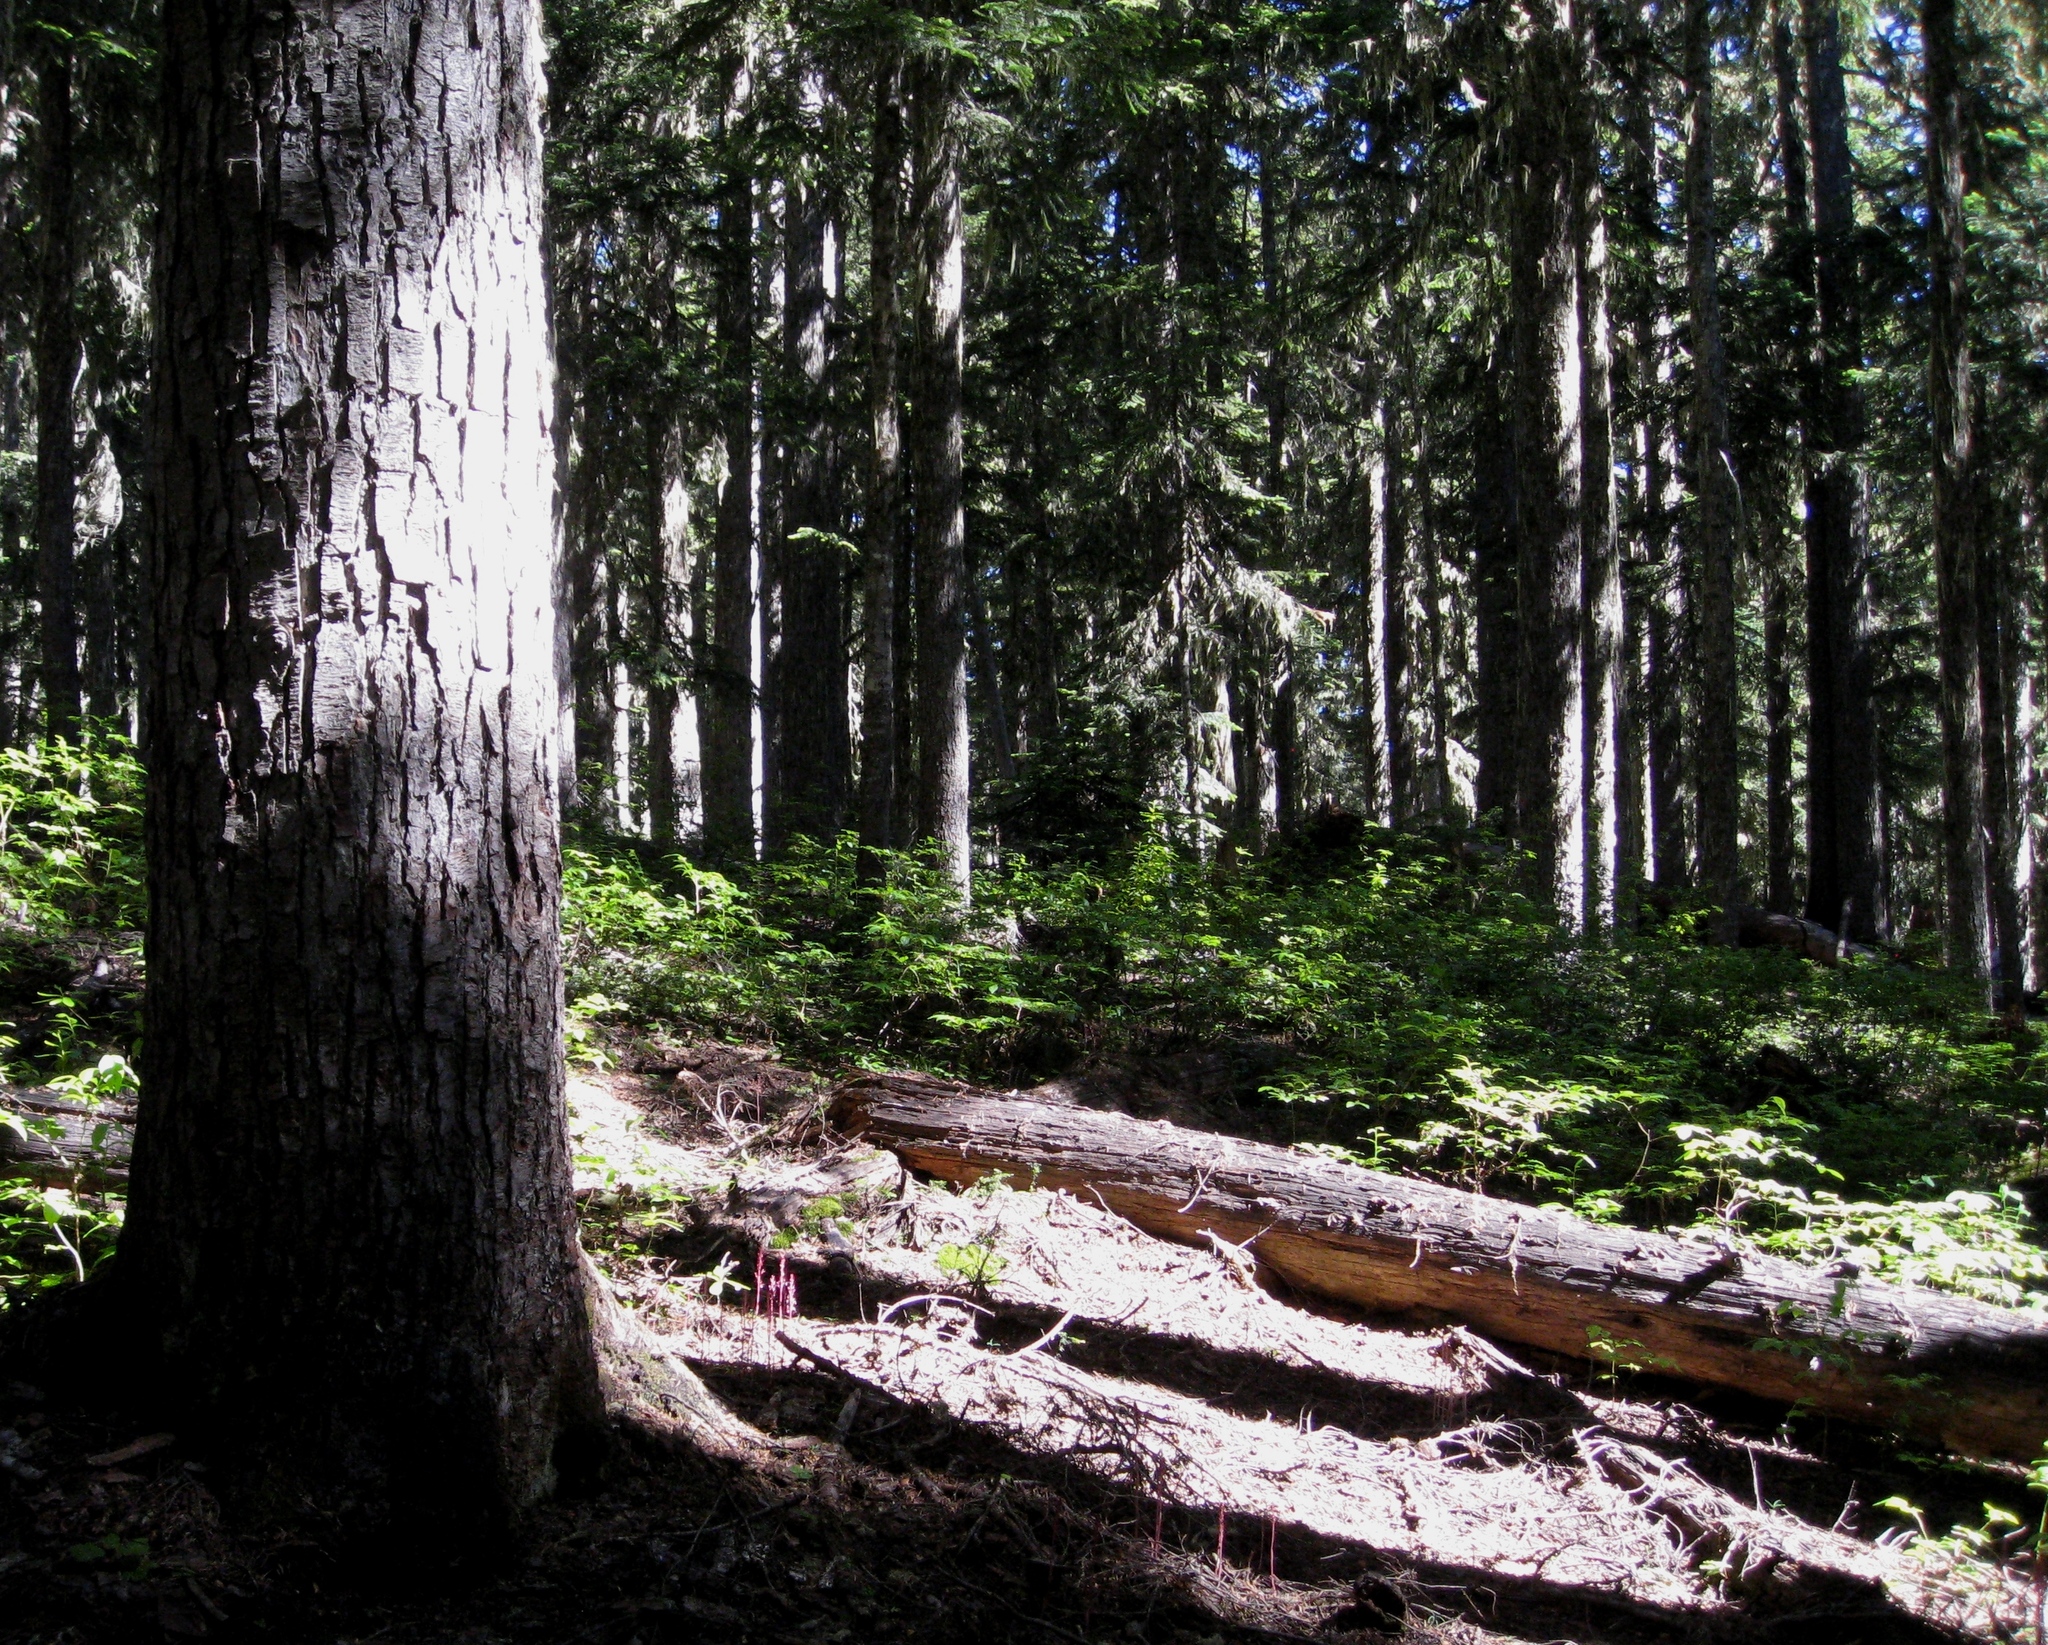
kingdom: Plantae
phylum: Tracheophyta
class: Liliopsida
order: Asparagales
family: Orchidaceae
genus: Corallorhiza
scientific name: Corallorhiza mertensiana
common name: Pacific coralroot
